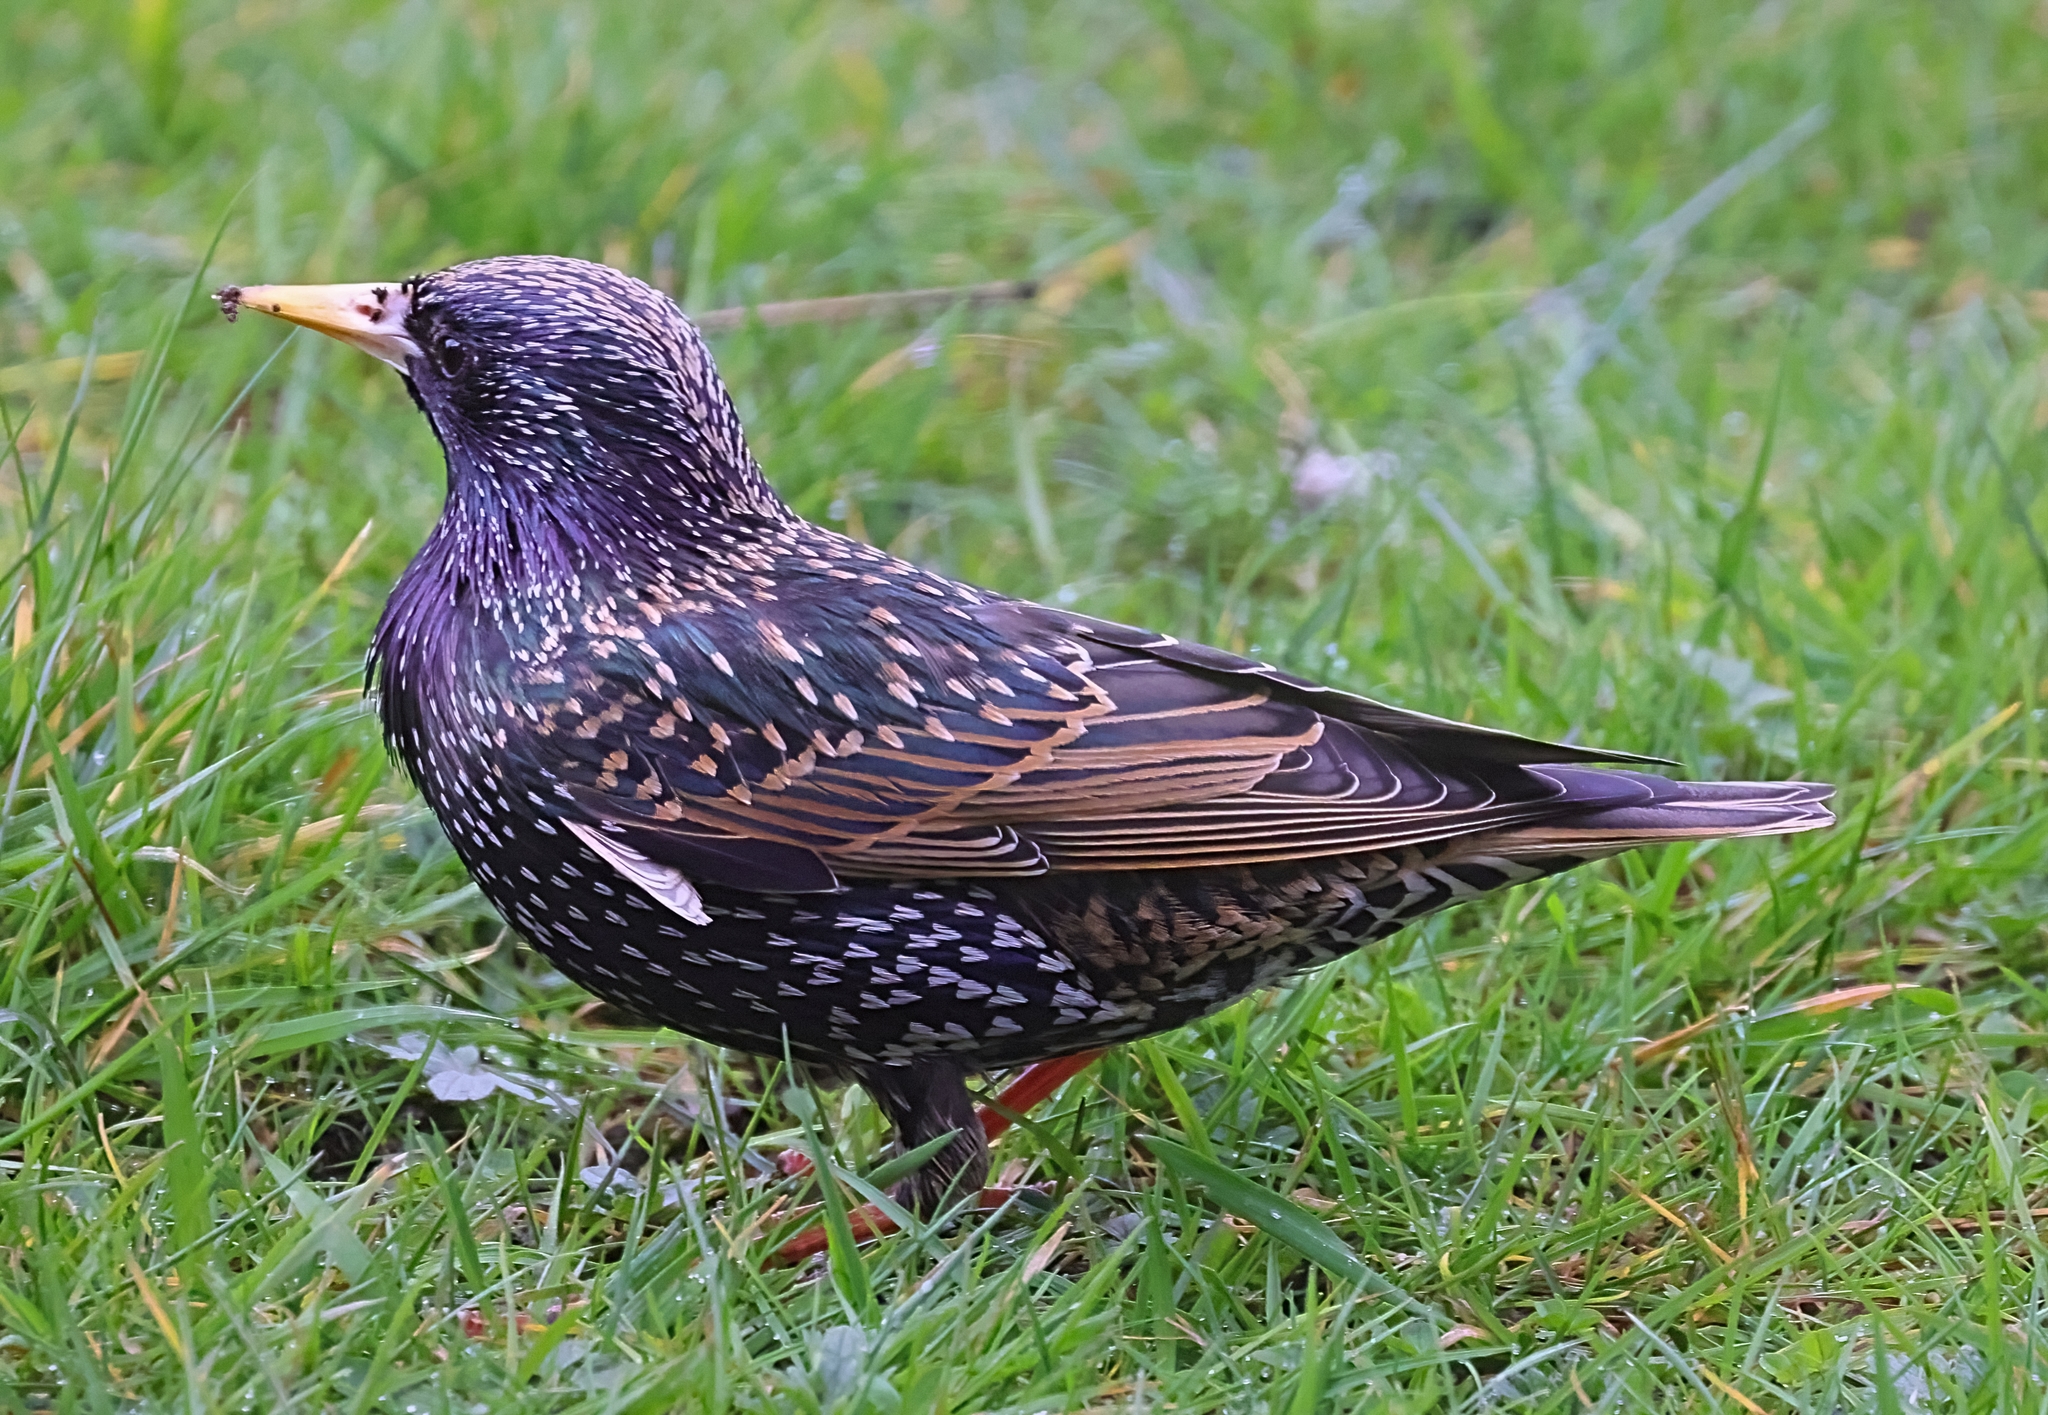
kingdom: Animalia
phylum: Chordata
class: Aves
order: Passeriformes
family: Sturnidae
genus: Sturnus
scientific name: Sturnus vulgaris
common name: Common starling
